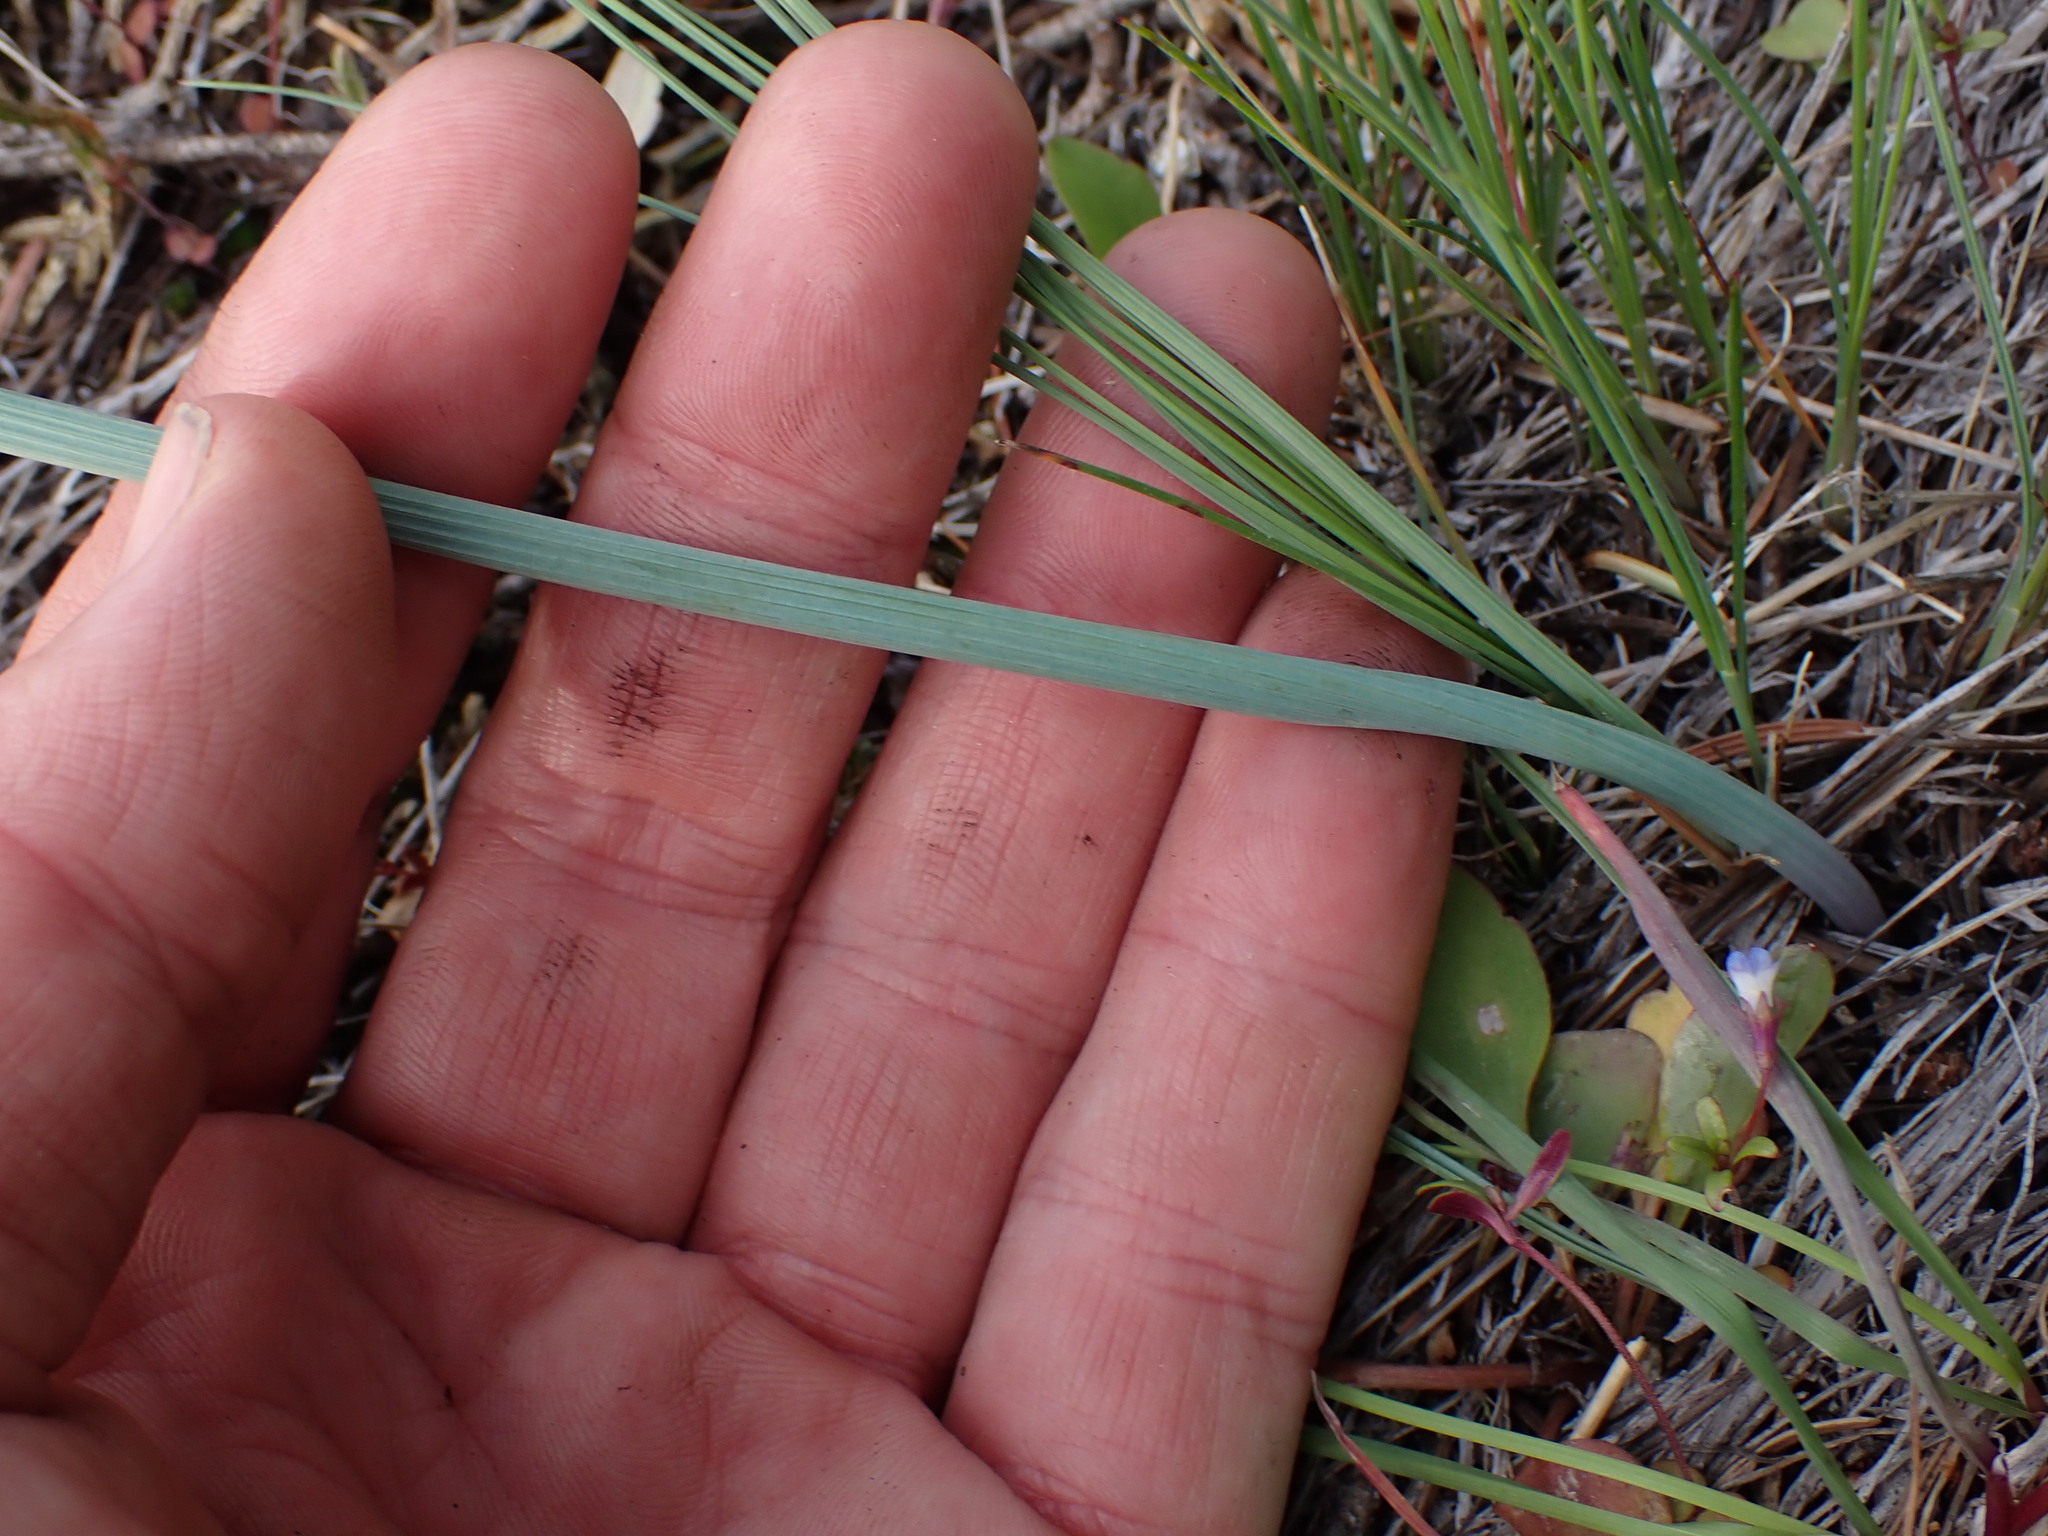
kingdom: Plantae
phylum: Tracheophyta
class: Liliopsida
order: Liliales
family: Liliaceae
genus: Calochortus
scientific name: Calochortus macrocarpus
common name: Green-band mariposa lily
